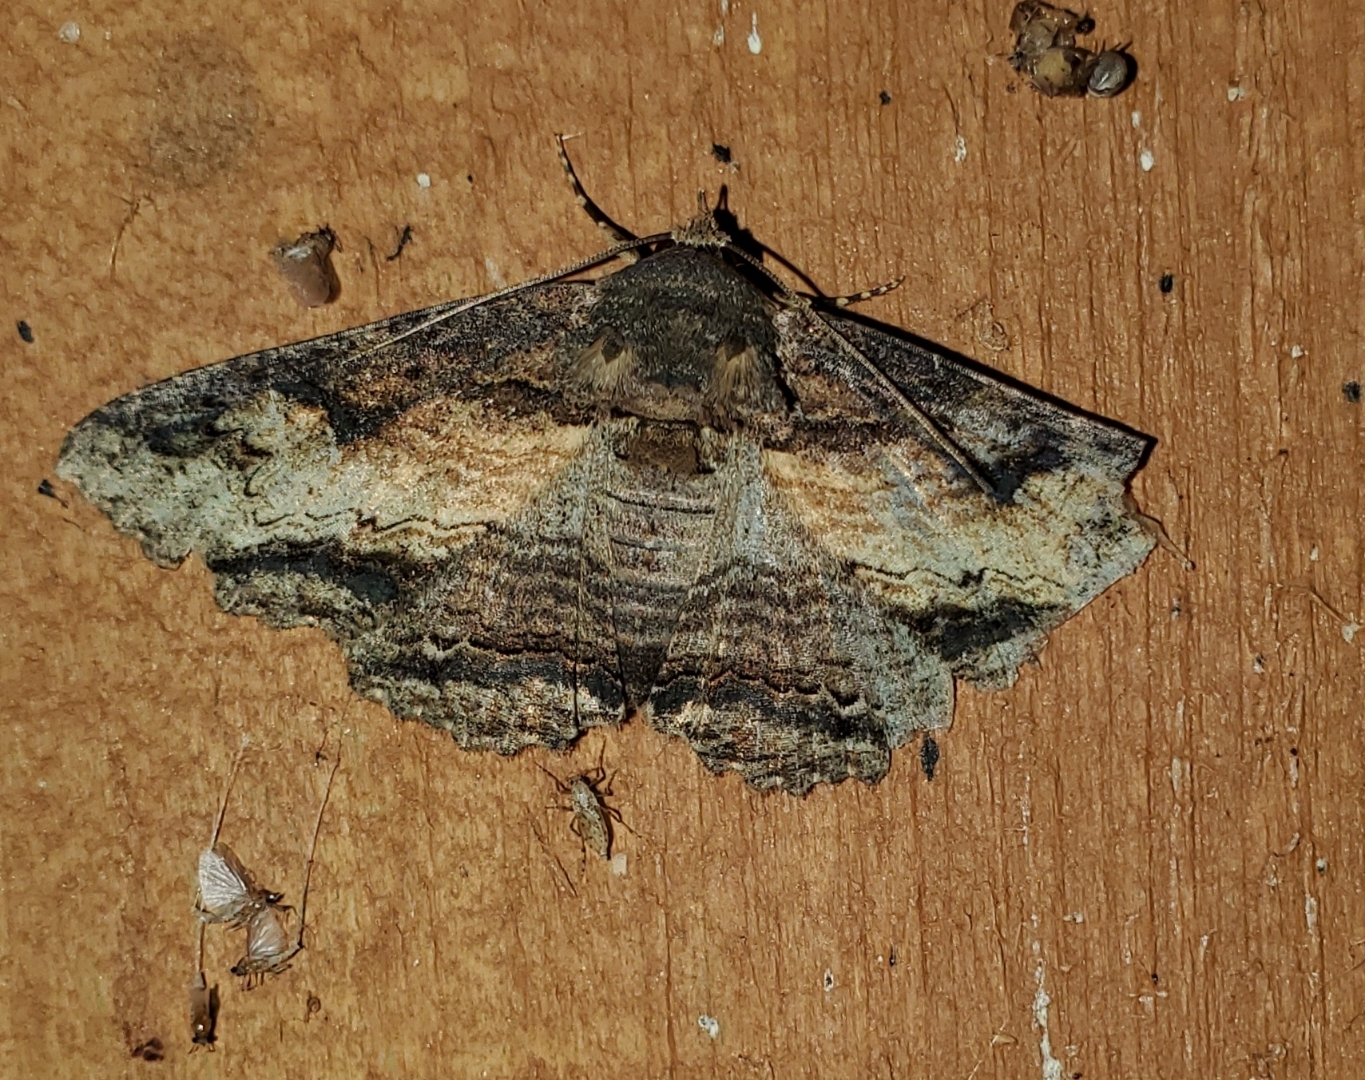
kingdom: Animalia
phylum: Arthropoda
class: Insecta
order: Lepidoptera
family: Erebidae
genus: Zale
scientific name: Zale lunata
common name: Lunate zale moth
